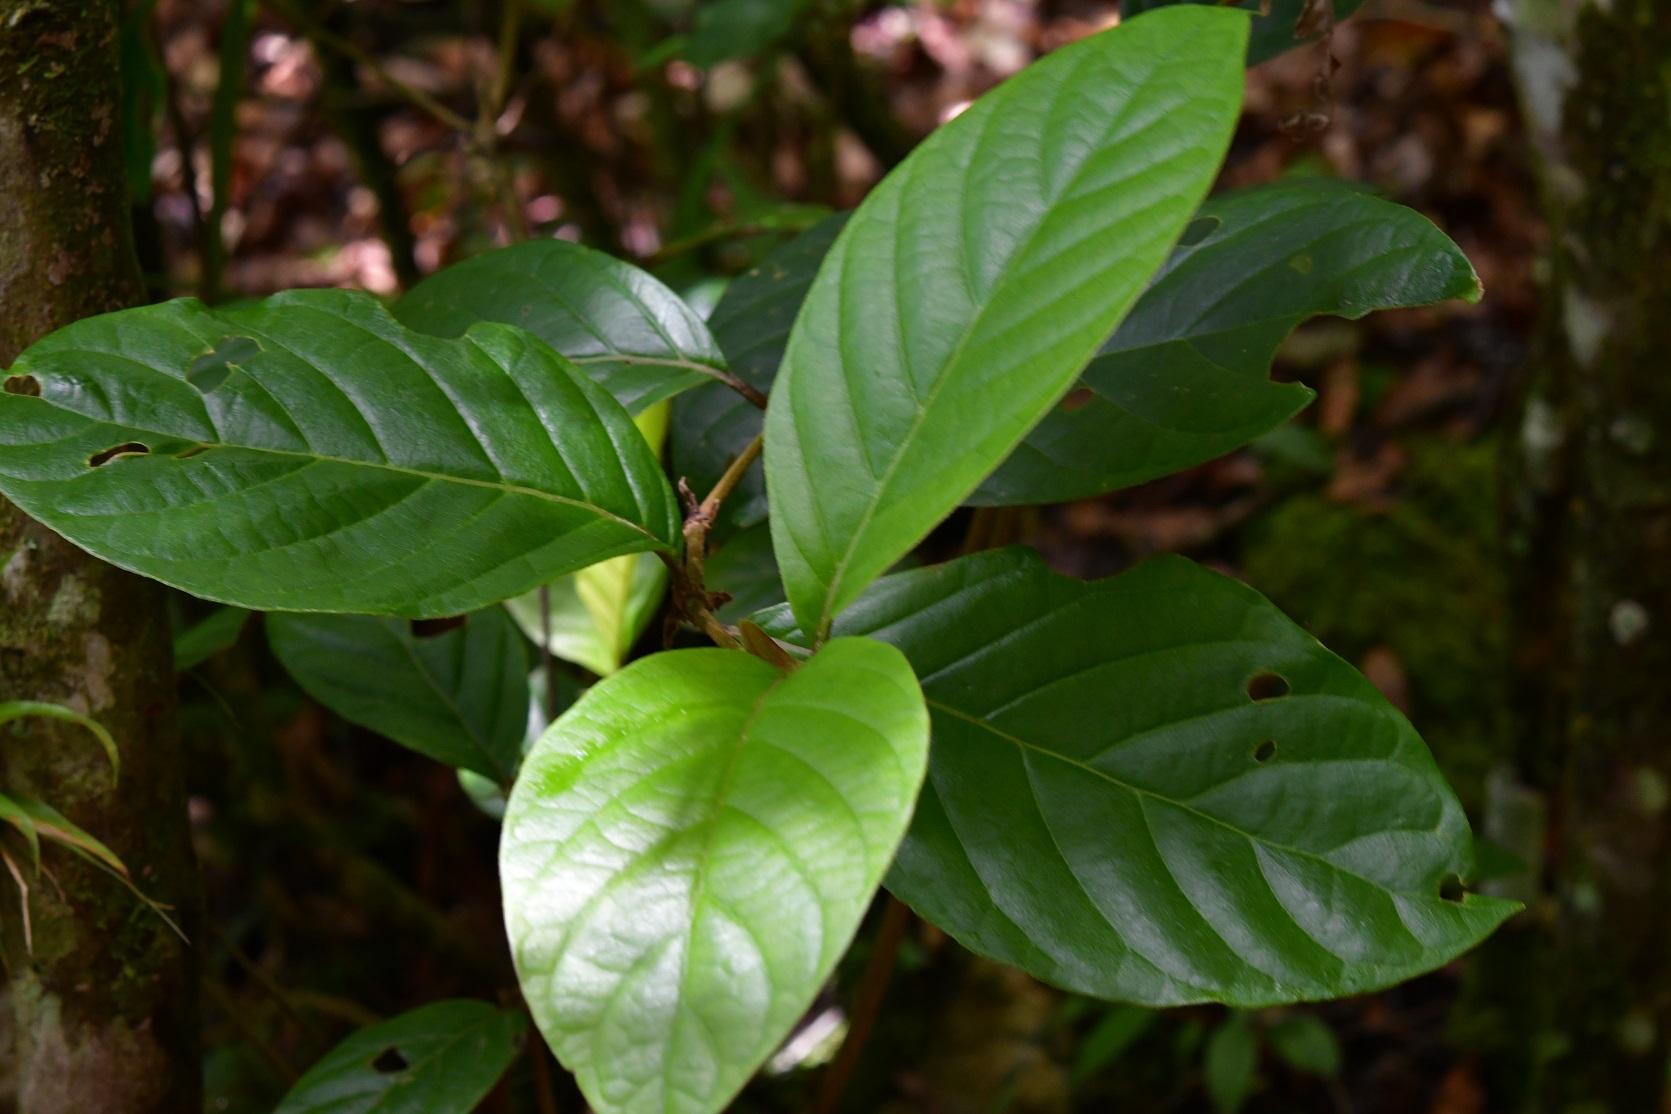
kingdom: Plantae
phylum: Tracheophyta
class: Magnoliopsida
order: Gentianales
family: Rubiaceae
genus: Rogiera
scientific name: Rogiera amoena
